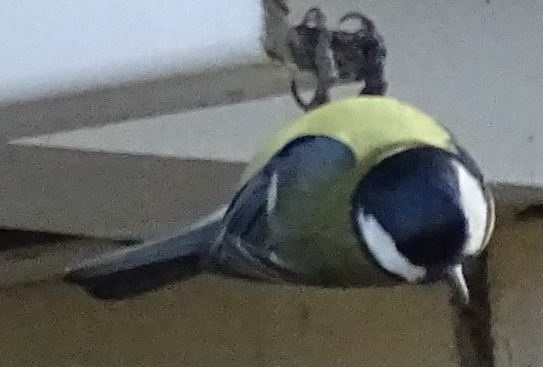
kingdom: Animalia
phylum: Chordata
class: Aves
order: Passeriformes
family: Paridae
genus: Parus
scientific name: Parus major
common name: Great tit
